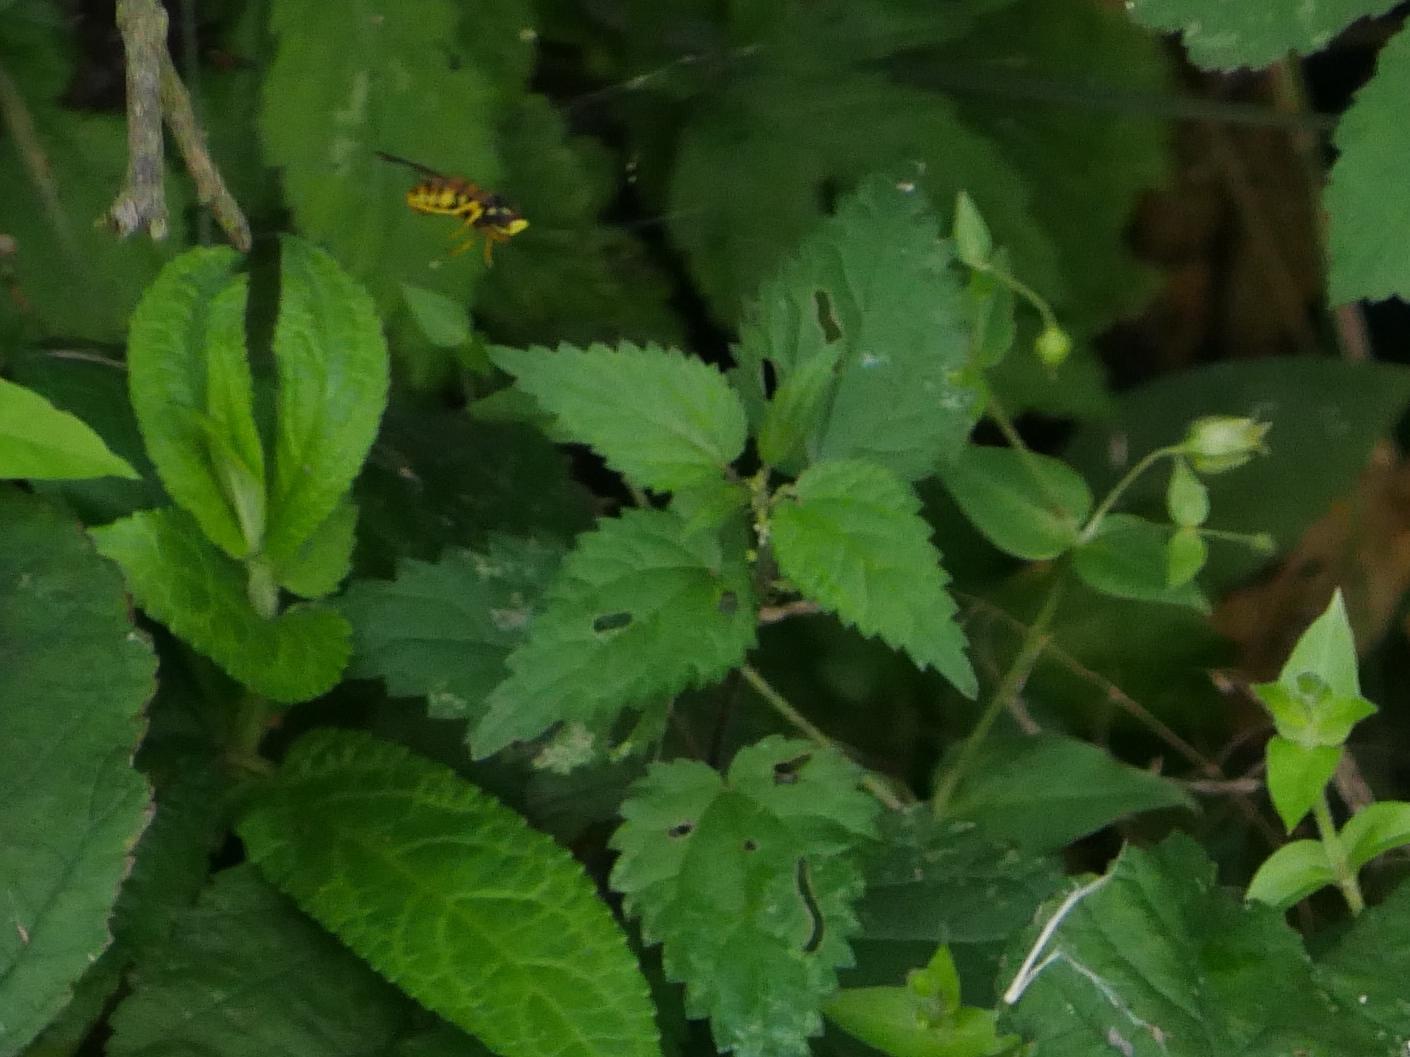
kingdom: Plantae
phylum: Tracheophyta
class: Magnoliopsida
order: Rosales
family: Urticaceae
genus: Urtica
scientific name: Urtica dioica
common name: Common nettle
